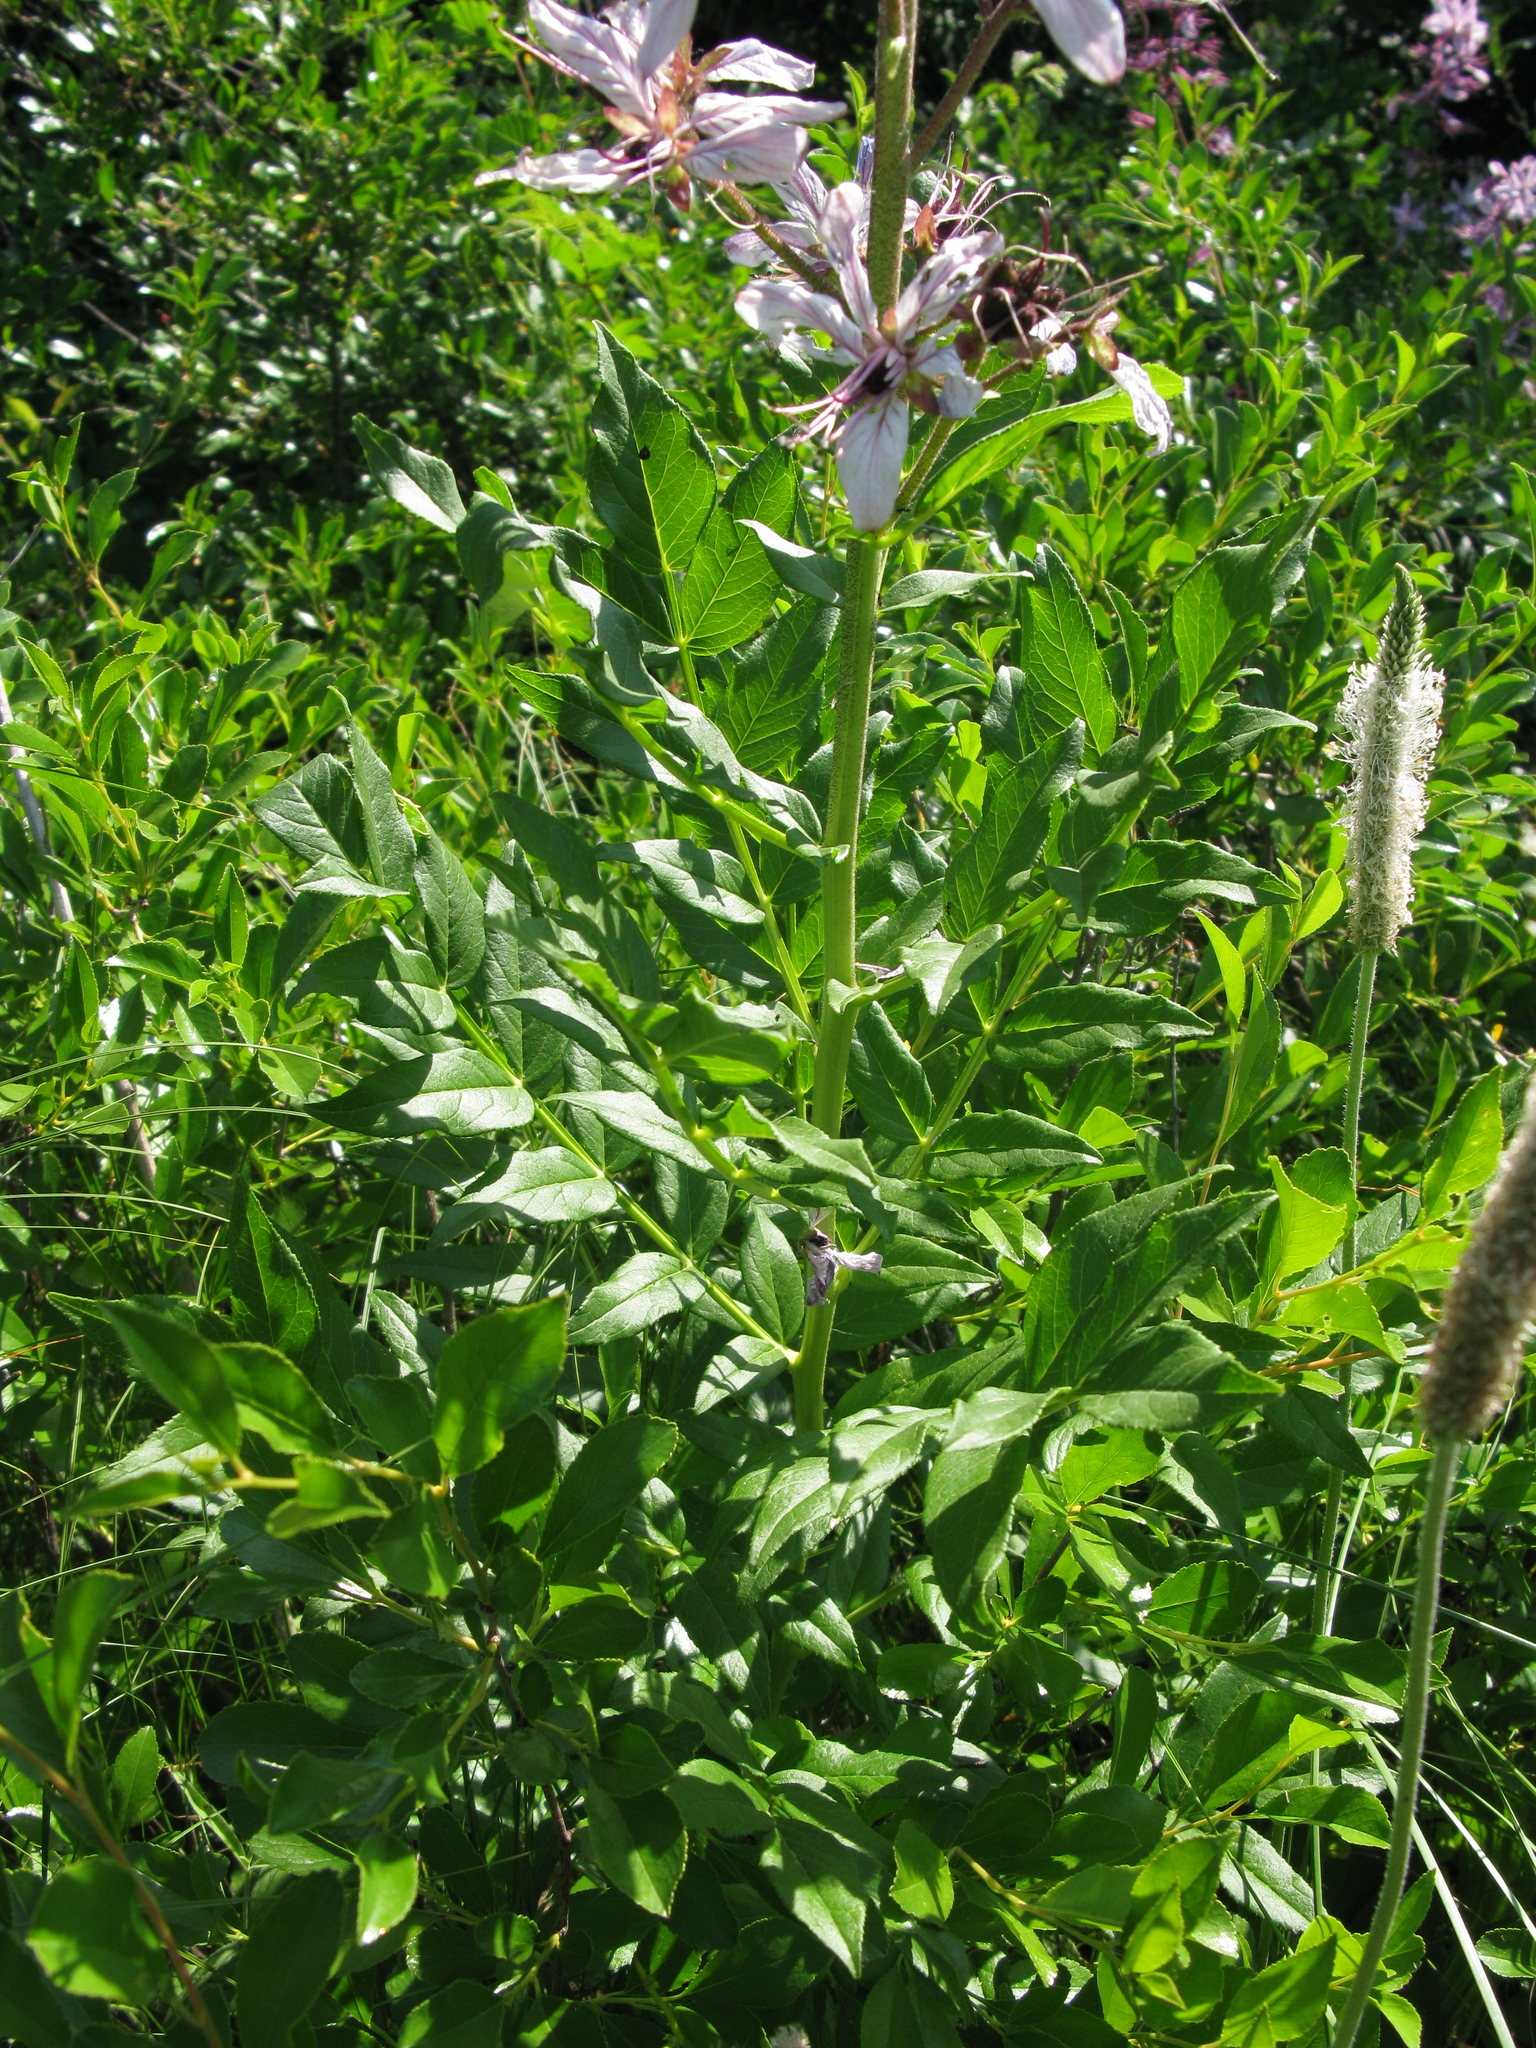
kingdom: Plantae
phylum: Tracheophyta
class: Magnoliopsida
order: Sapindales
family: Rutaceae
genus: Dictamnus
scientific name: Dictamnus albus
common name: Gasplant
